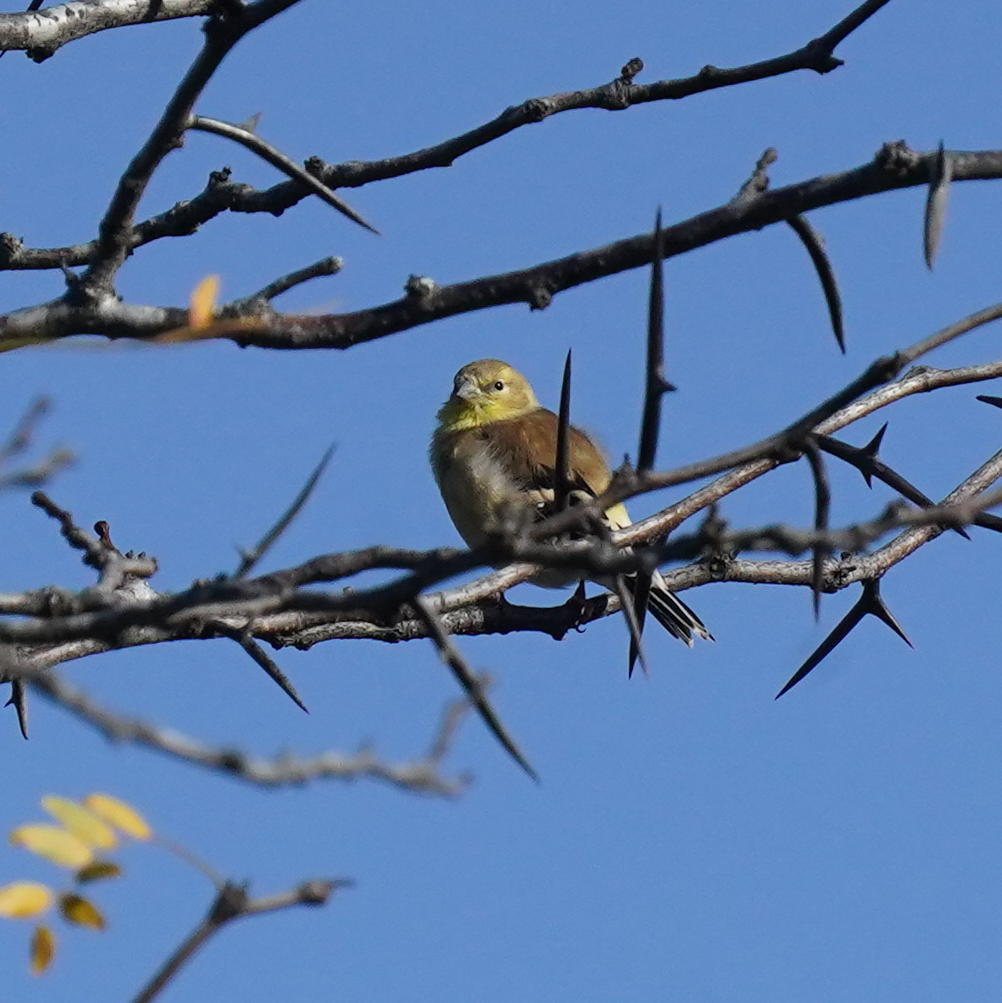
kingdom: Animalia
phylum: Chordata
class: Aves
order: Passeriformes
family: Fringillidae
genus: Spinus
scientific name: Spinus tristis
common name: American goldfinch
